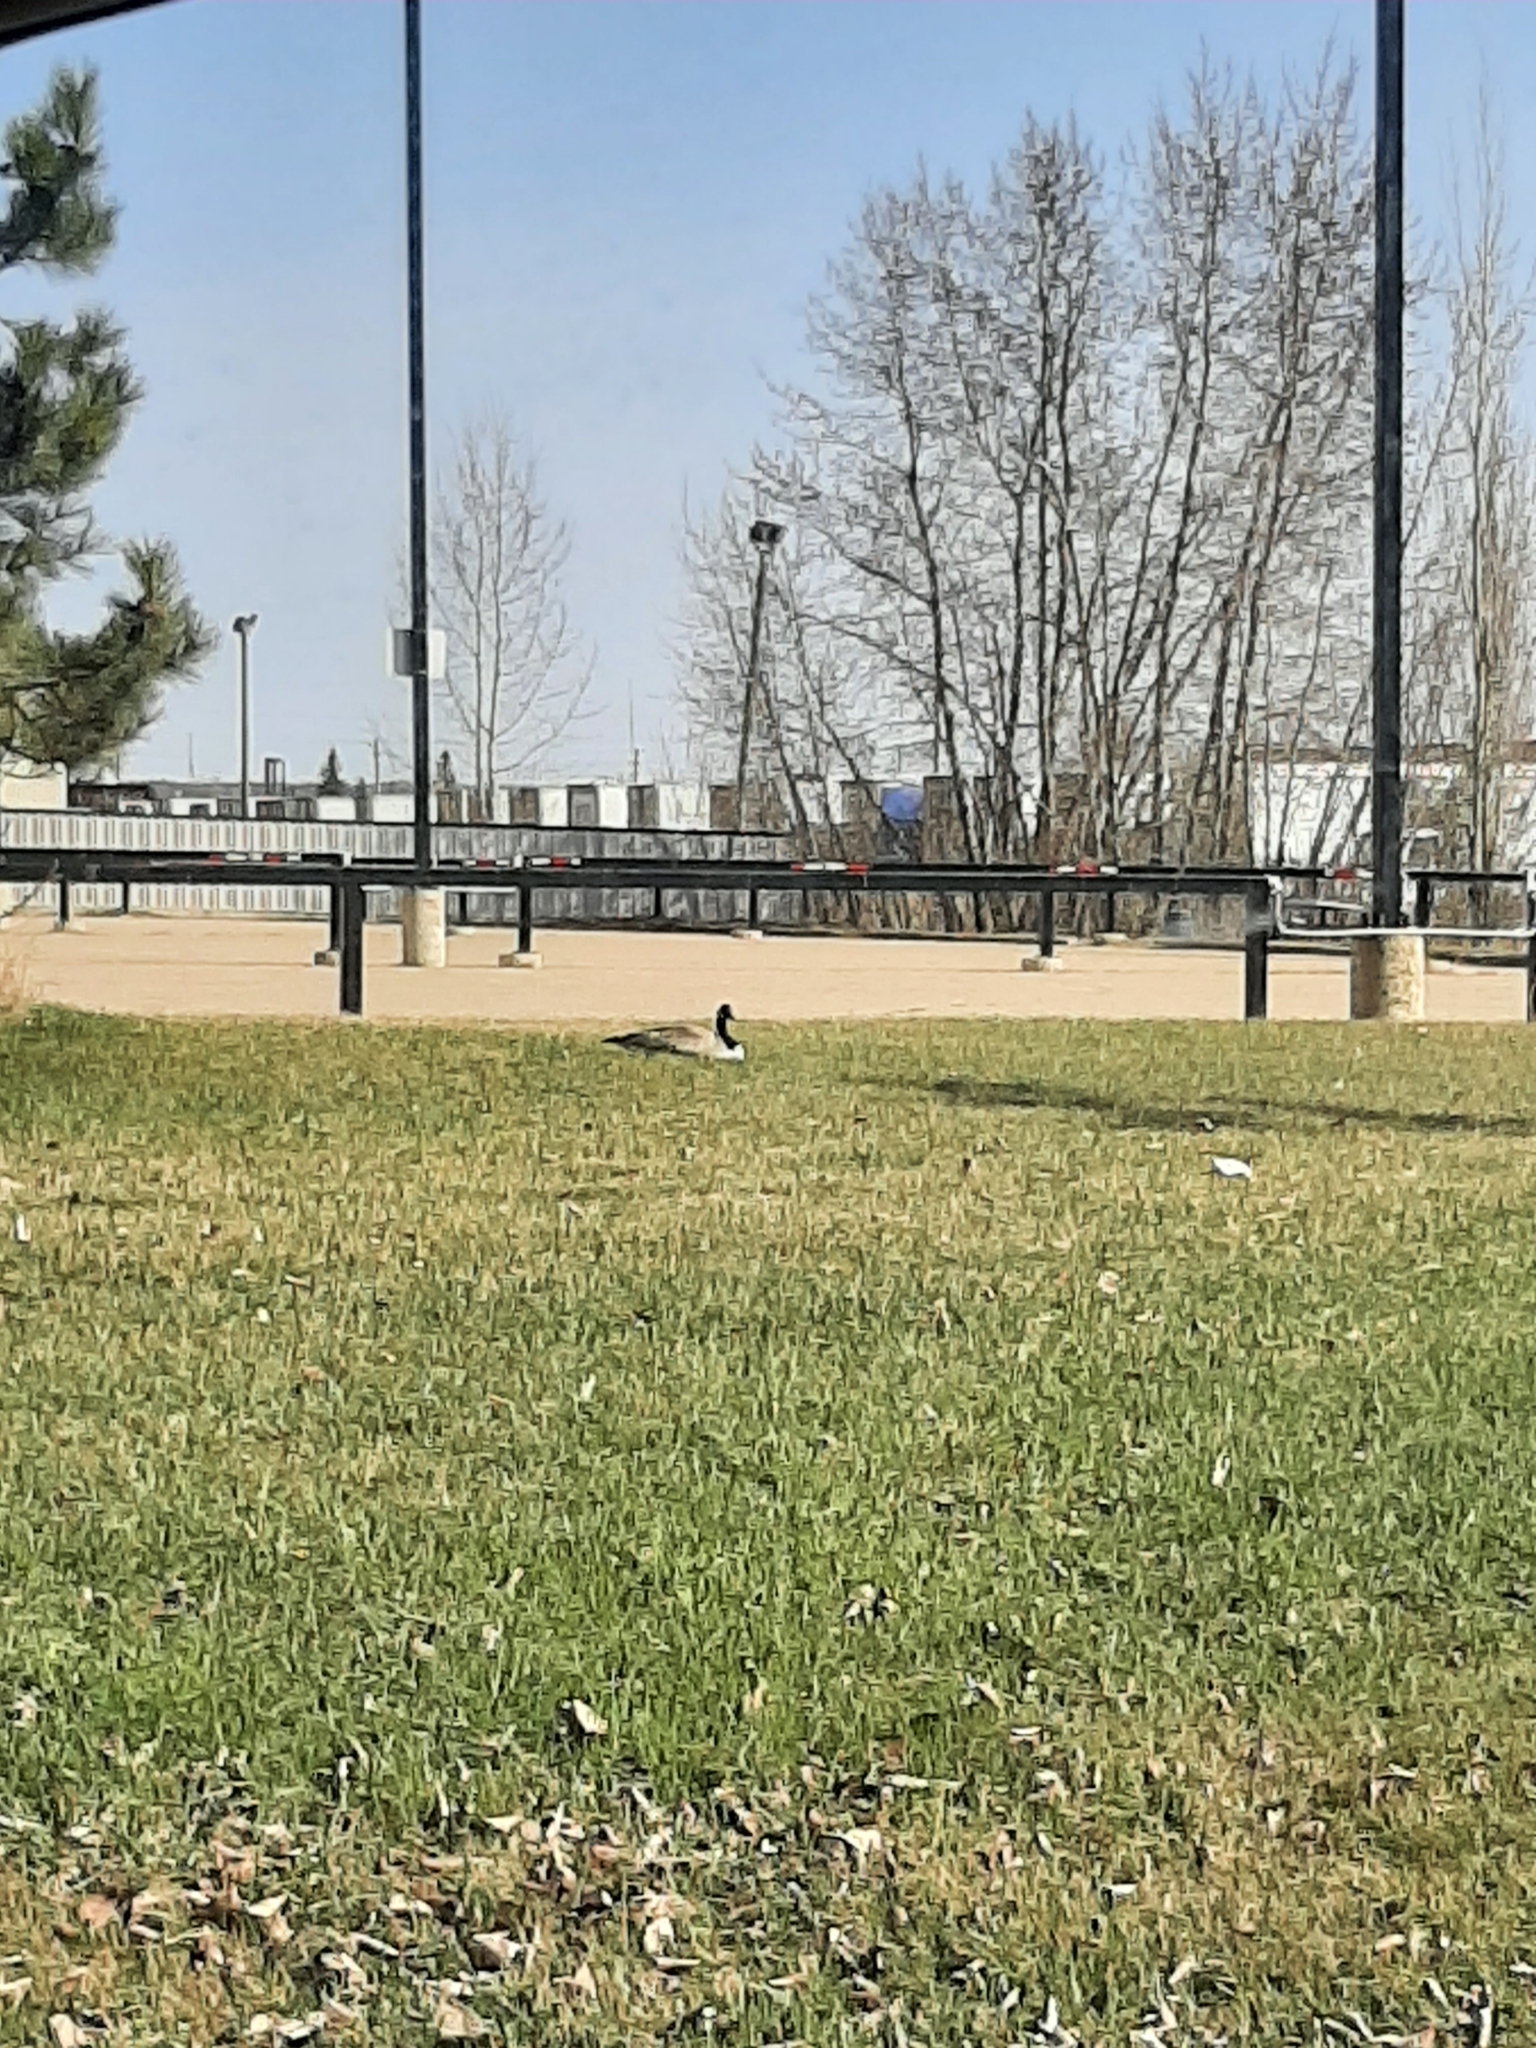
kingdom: Animalia
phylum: Chordata
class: Aves
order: Anseriformes
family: Anatidae
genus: Branta
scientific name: Branta canadensis
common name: Canada goose
